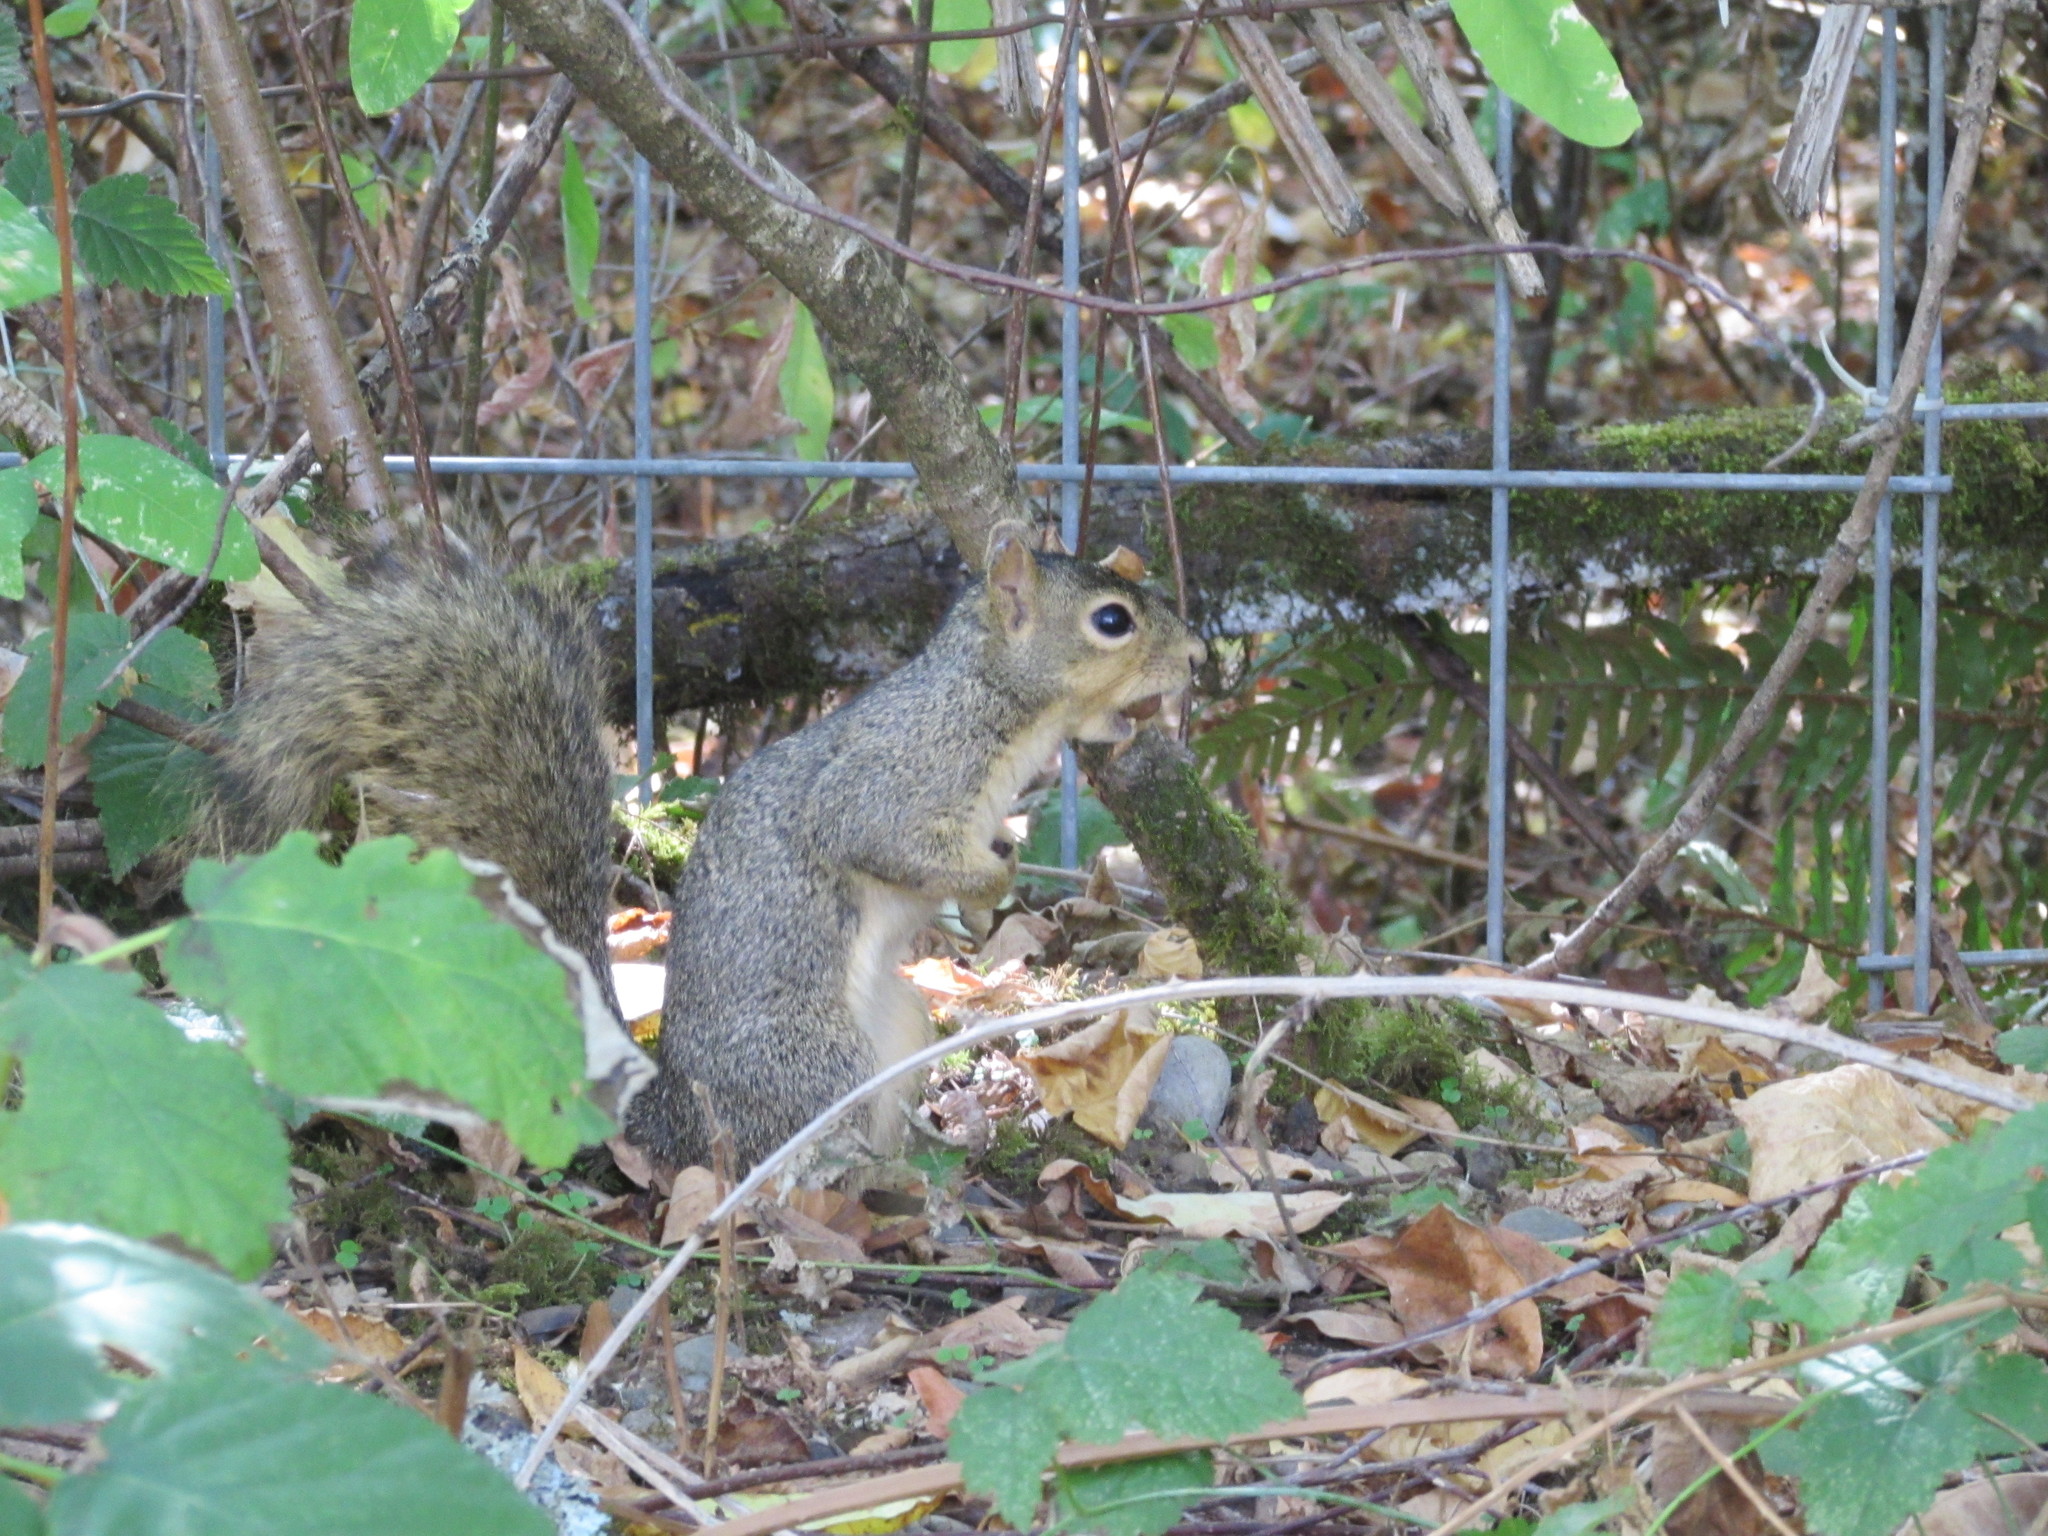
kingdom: Animalia
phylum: Chordata
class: Mammalia
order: Rodentia
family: Sciuridae
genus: Sciurus
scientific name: Sciurus carolinensis
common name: Eastern gray squirrel
